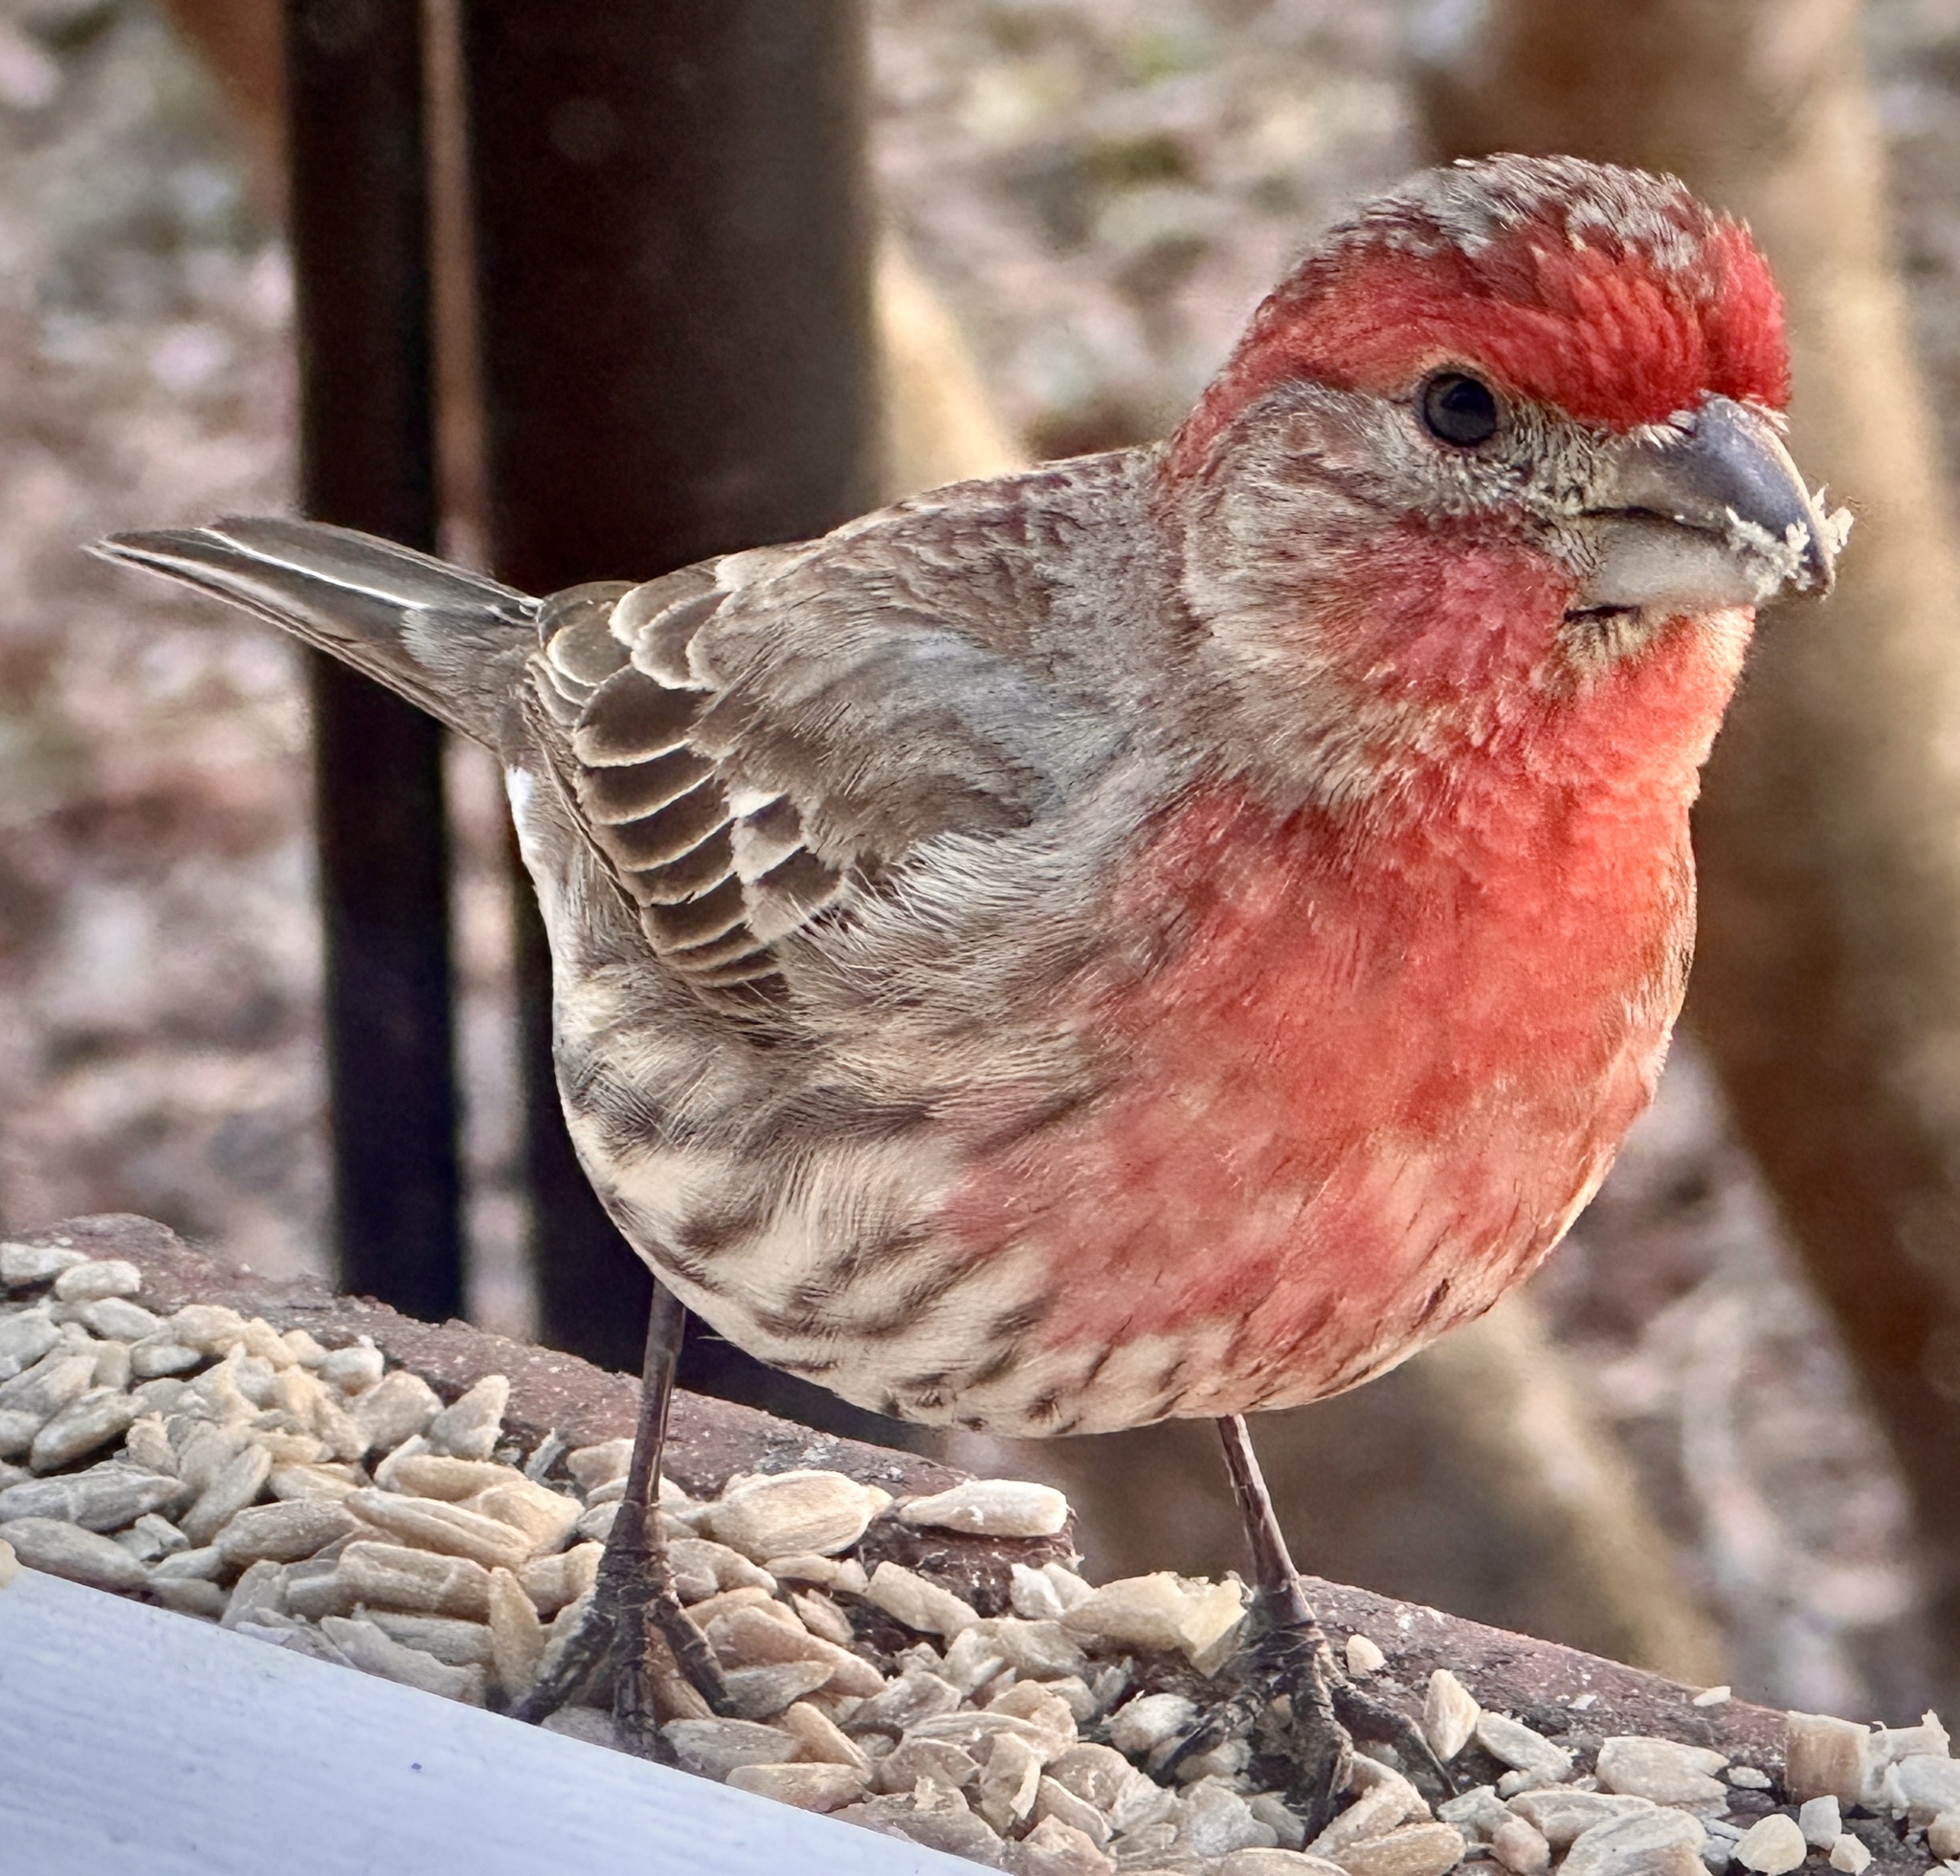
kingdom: Animalia
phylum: Chordata
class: Aves
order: Passeriformes
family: Fringillidae
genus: Haemorhous
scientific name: Haemorhous mexicanus
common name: House finch
